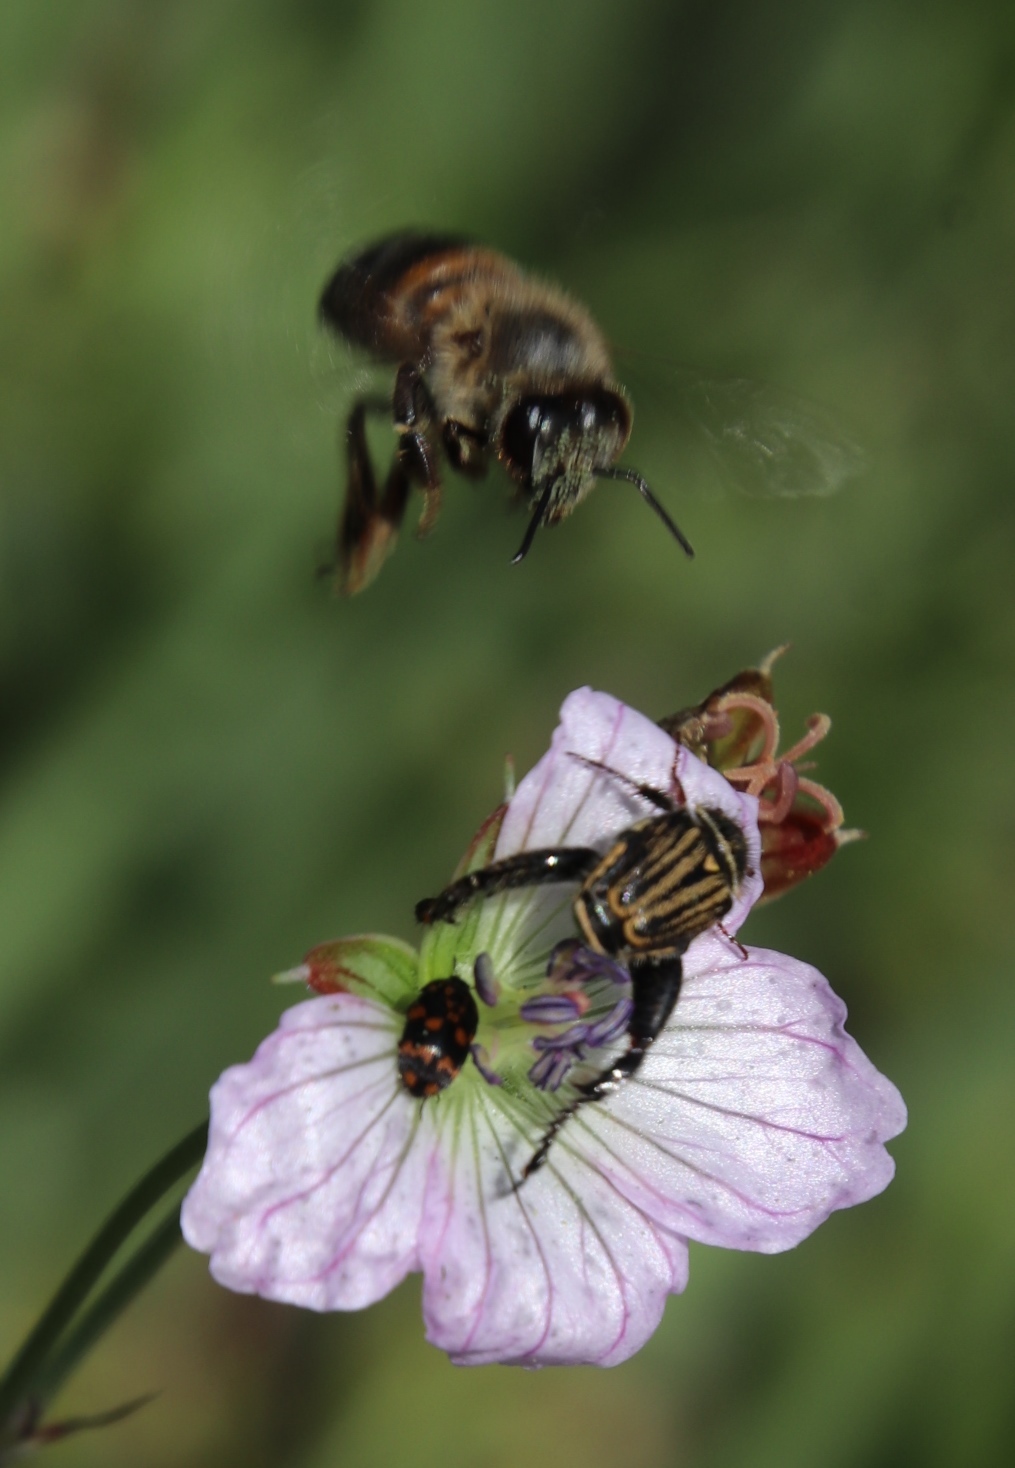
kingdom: Animalia
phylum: Arthropoda
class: Insecta
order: Hymenoptera
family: Apidae
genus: Apis
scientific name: Apis mellifera
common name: Honey bee
